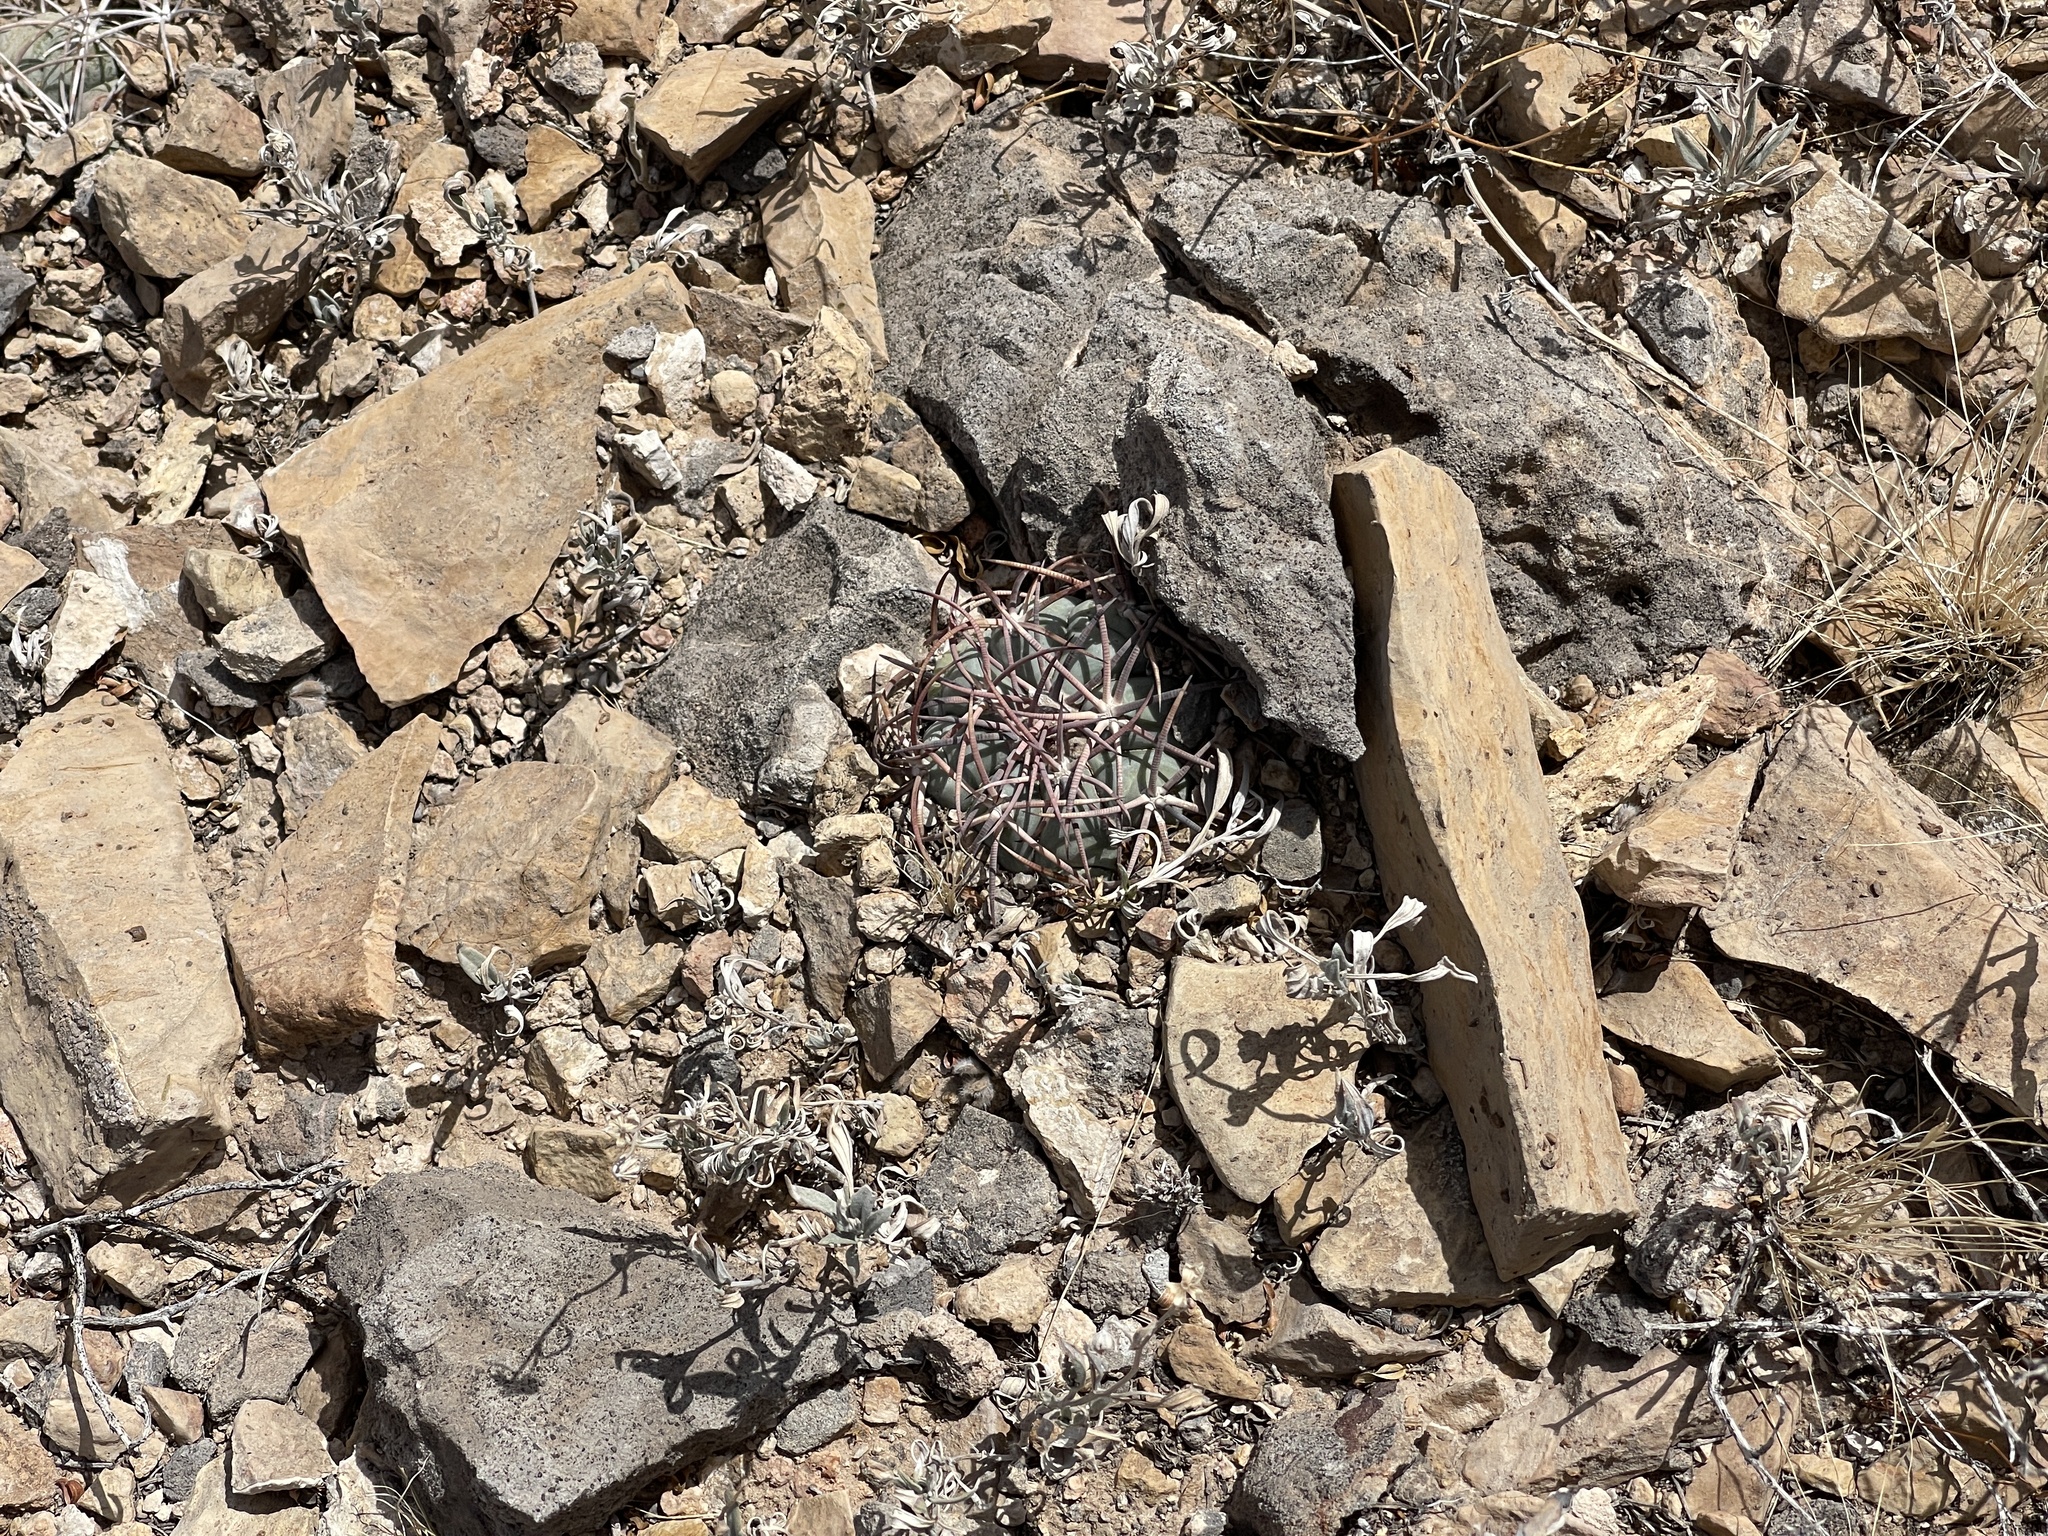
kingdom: Plantae
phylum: Tracheophyta
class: Magnoliopsida
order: Caryophyllales
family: Cactaceae
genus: Echinocactus
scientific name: Echinocactus horizonthalonius
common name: Devilshead
